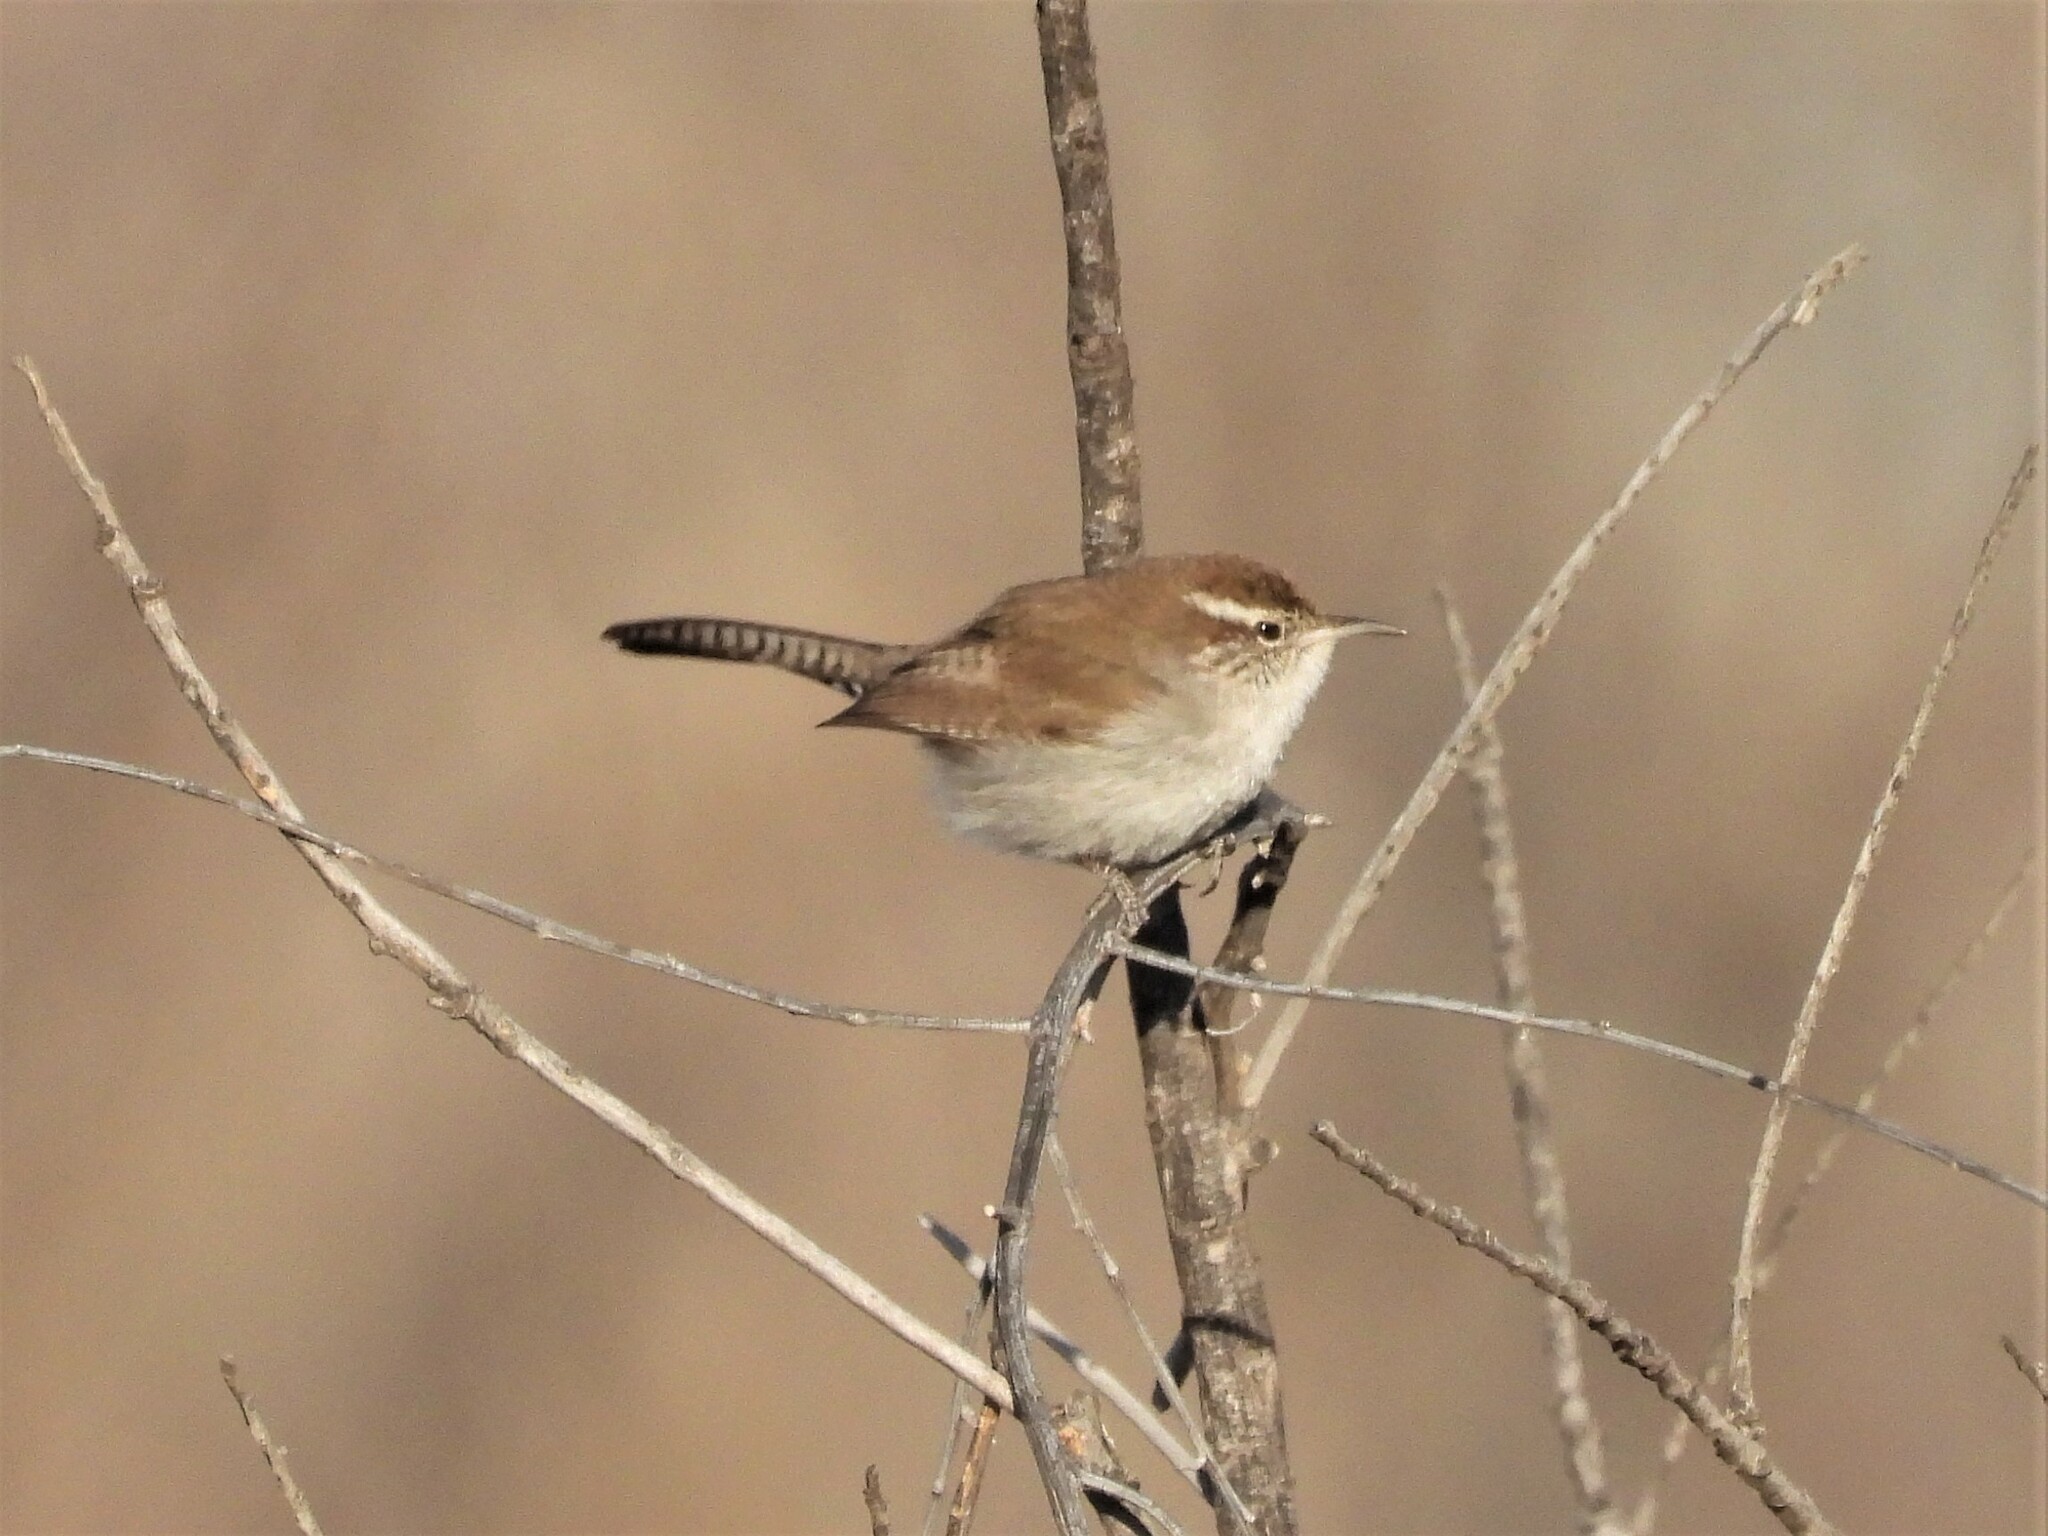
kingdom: Animalia
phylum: Chordata
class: Aves
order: Passeriformes
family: Troglodytidae
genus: Thryomanes
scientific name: Thryomanes bewickii
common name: Bewick's wren
